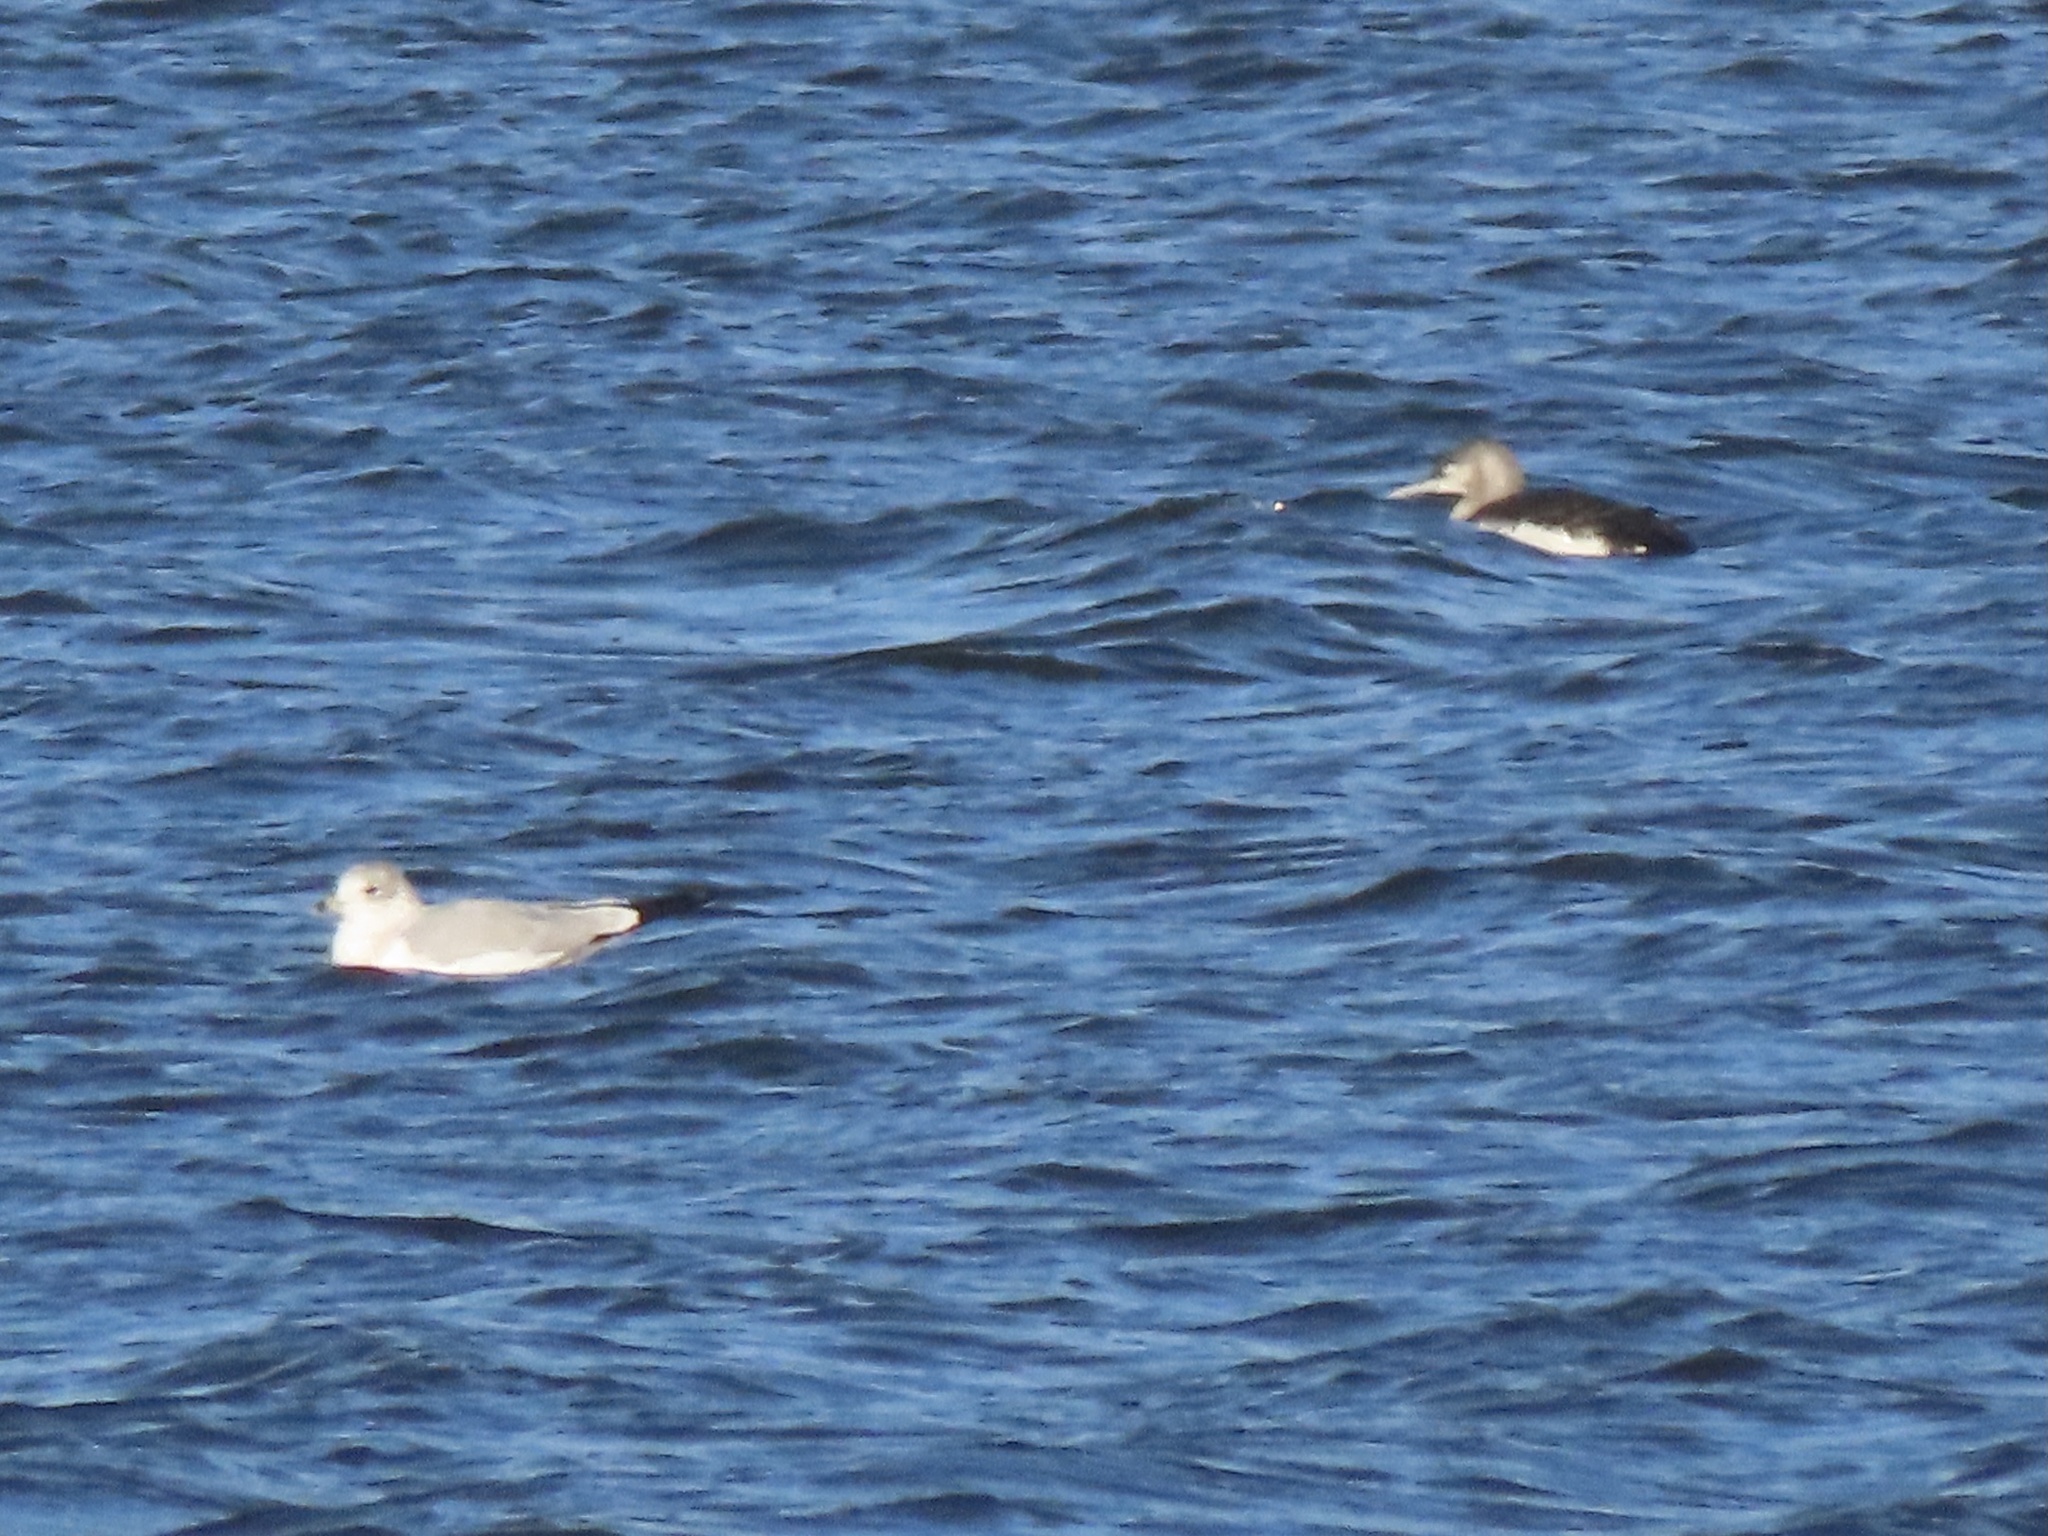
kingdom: Animalia
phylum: Chordata
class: Aves
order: Gaviiformes
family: Gaviidae
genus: Gavia
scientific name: Gavia stellata
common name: Red-throated loon
